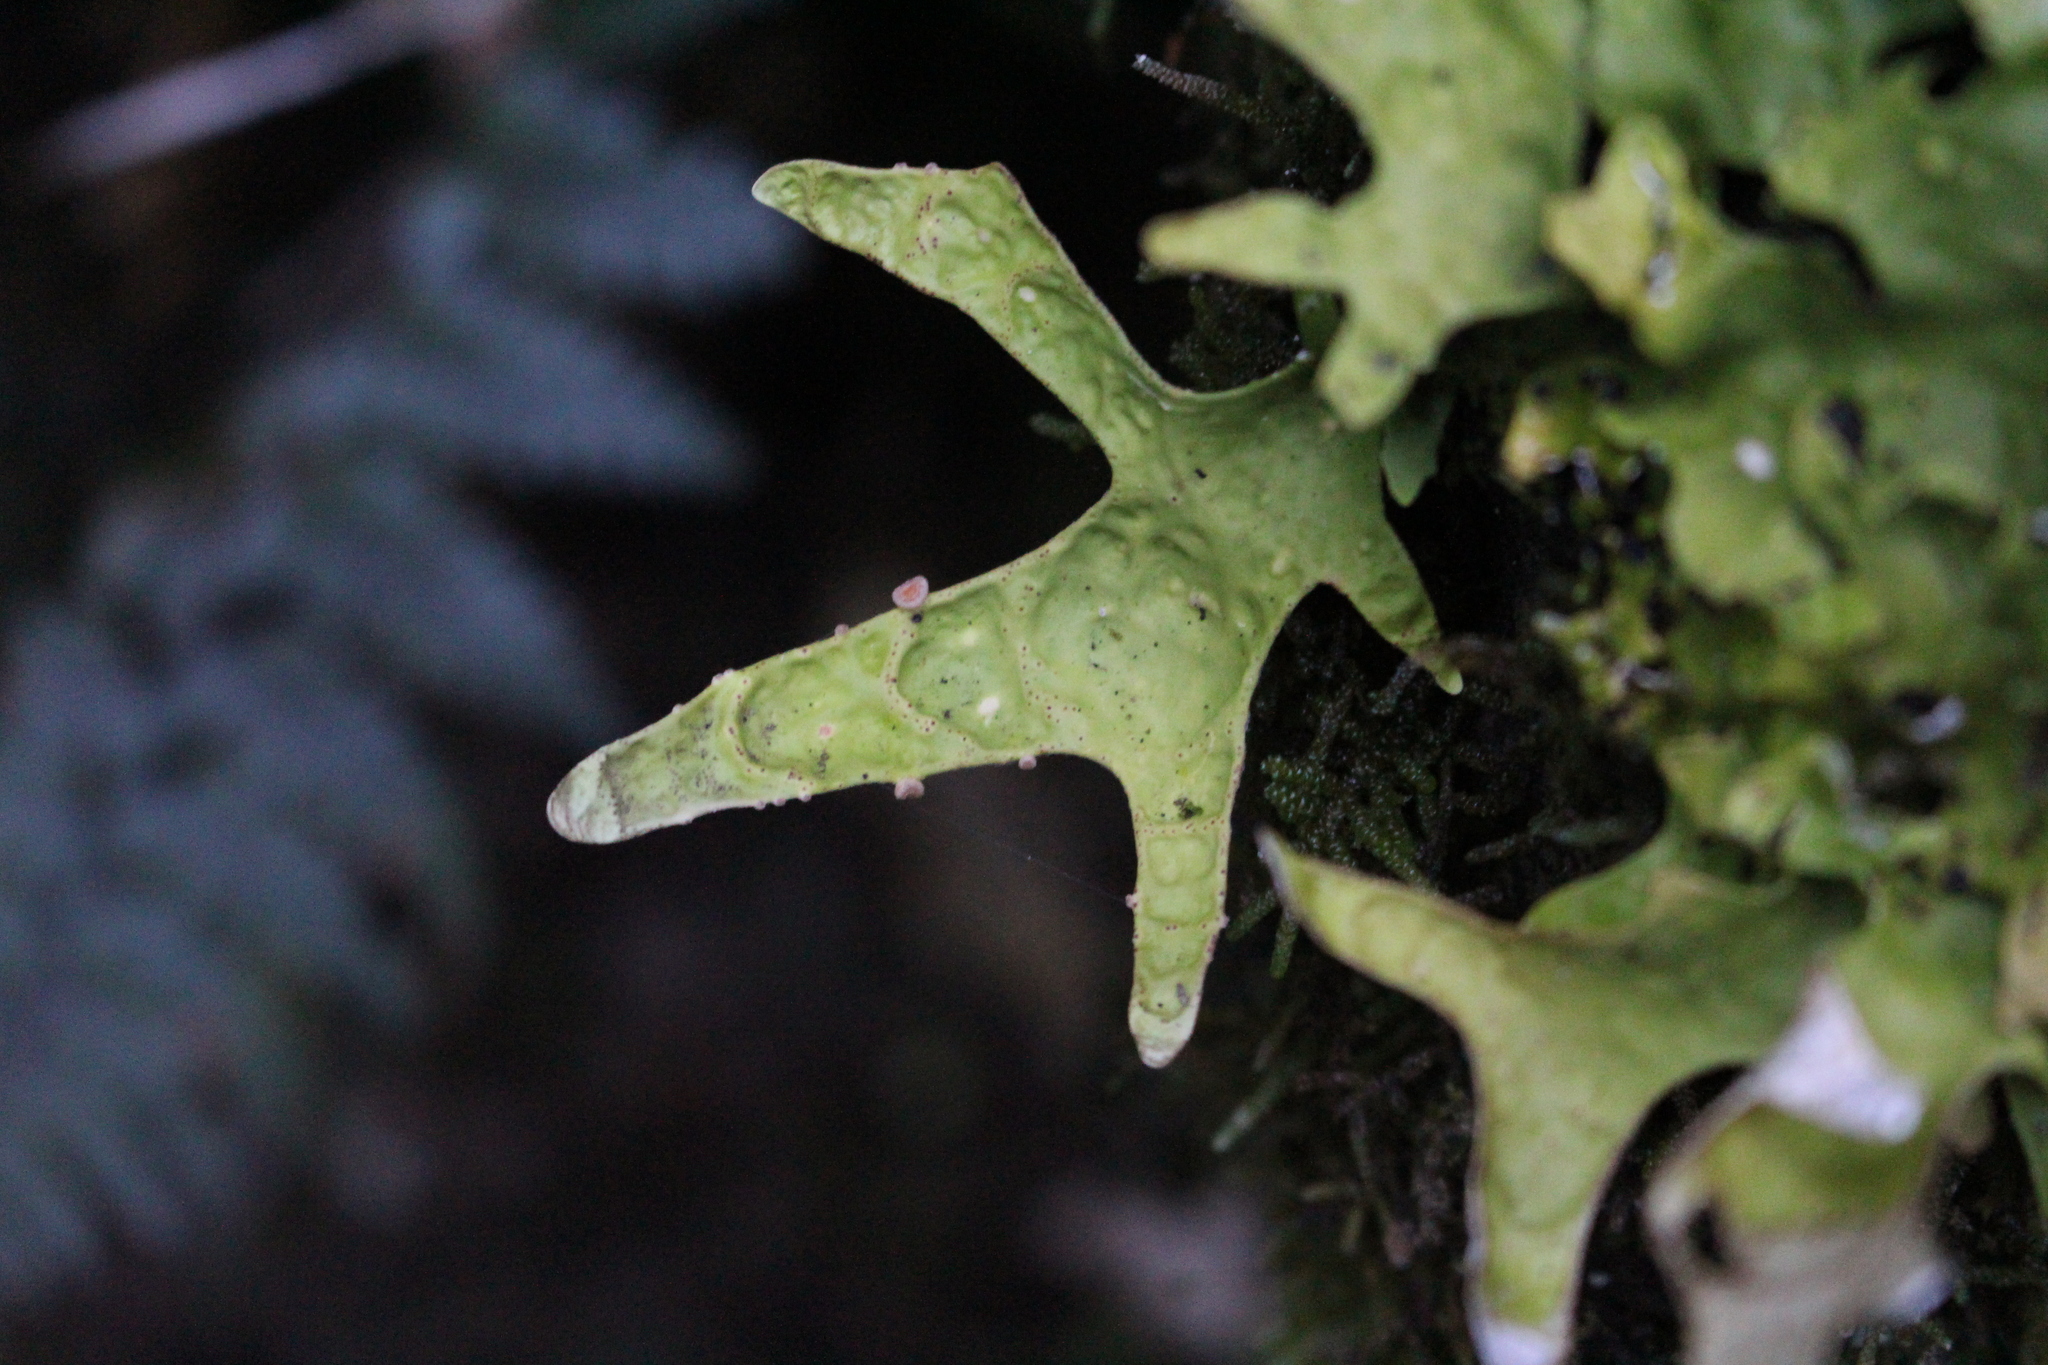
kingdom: Fungi
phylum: Ascomycota
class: Lecanoromycetes
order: Peltigerales
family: Lobariaceae
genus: Pseudocyphellaria
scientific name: Pseudocyphellaria rufovirescens
